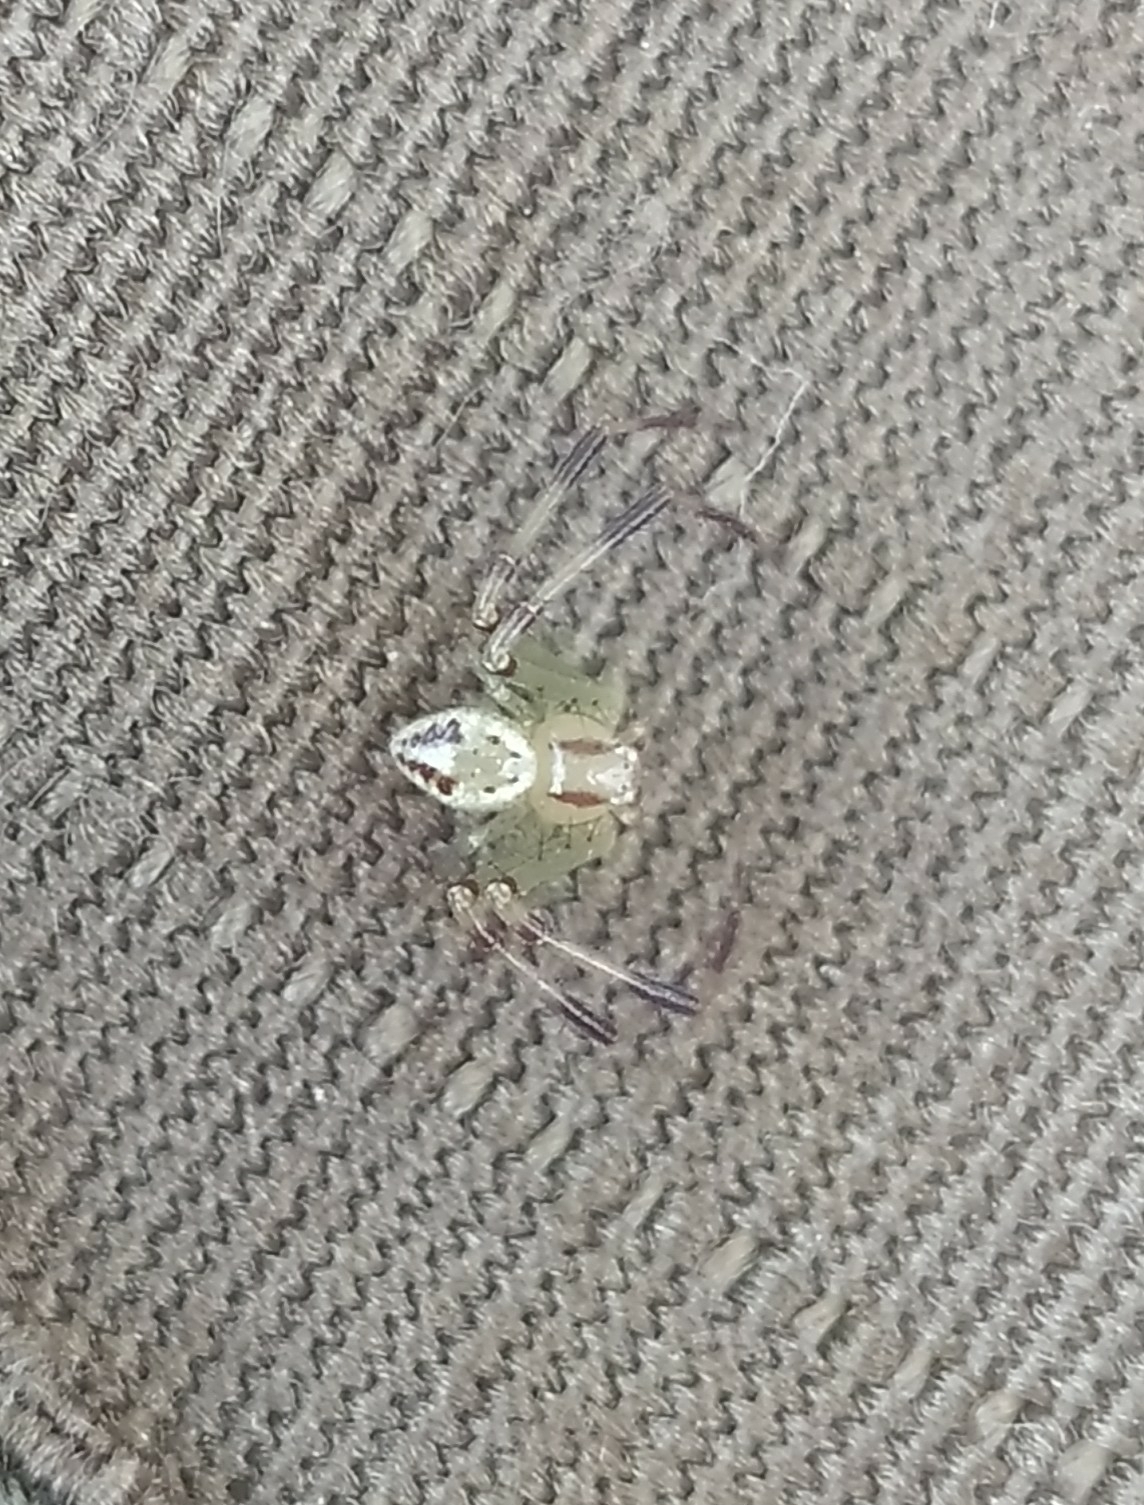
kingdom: Animalia
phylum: Arthropoda
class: Arachnida
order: Araneae
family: Thomisidae
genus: Misumenops
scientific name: Misumenops
